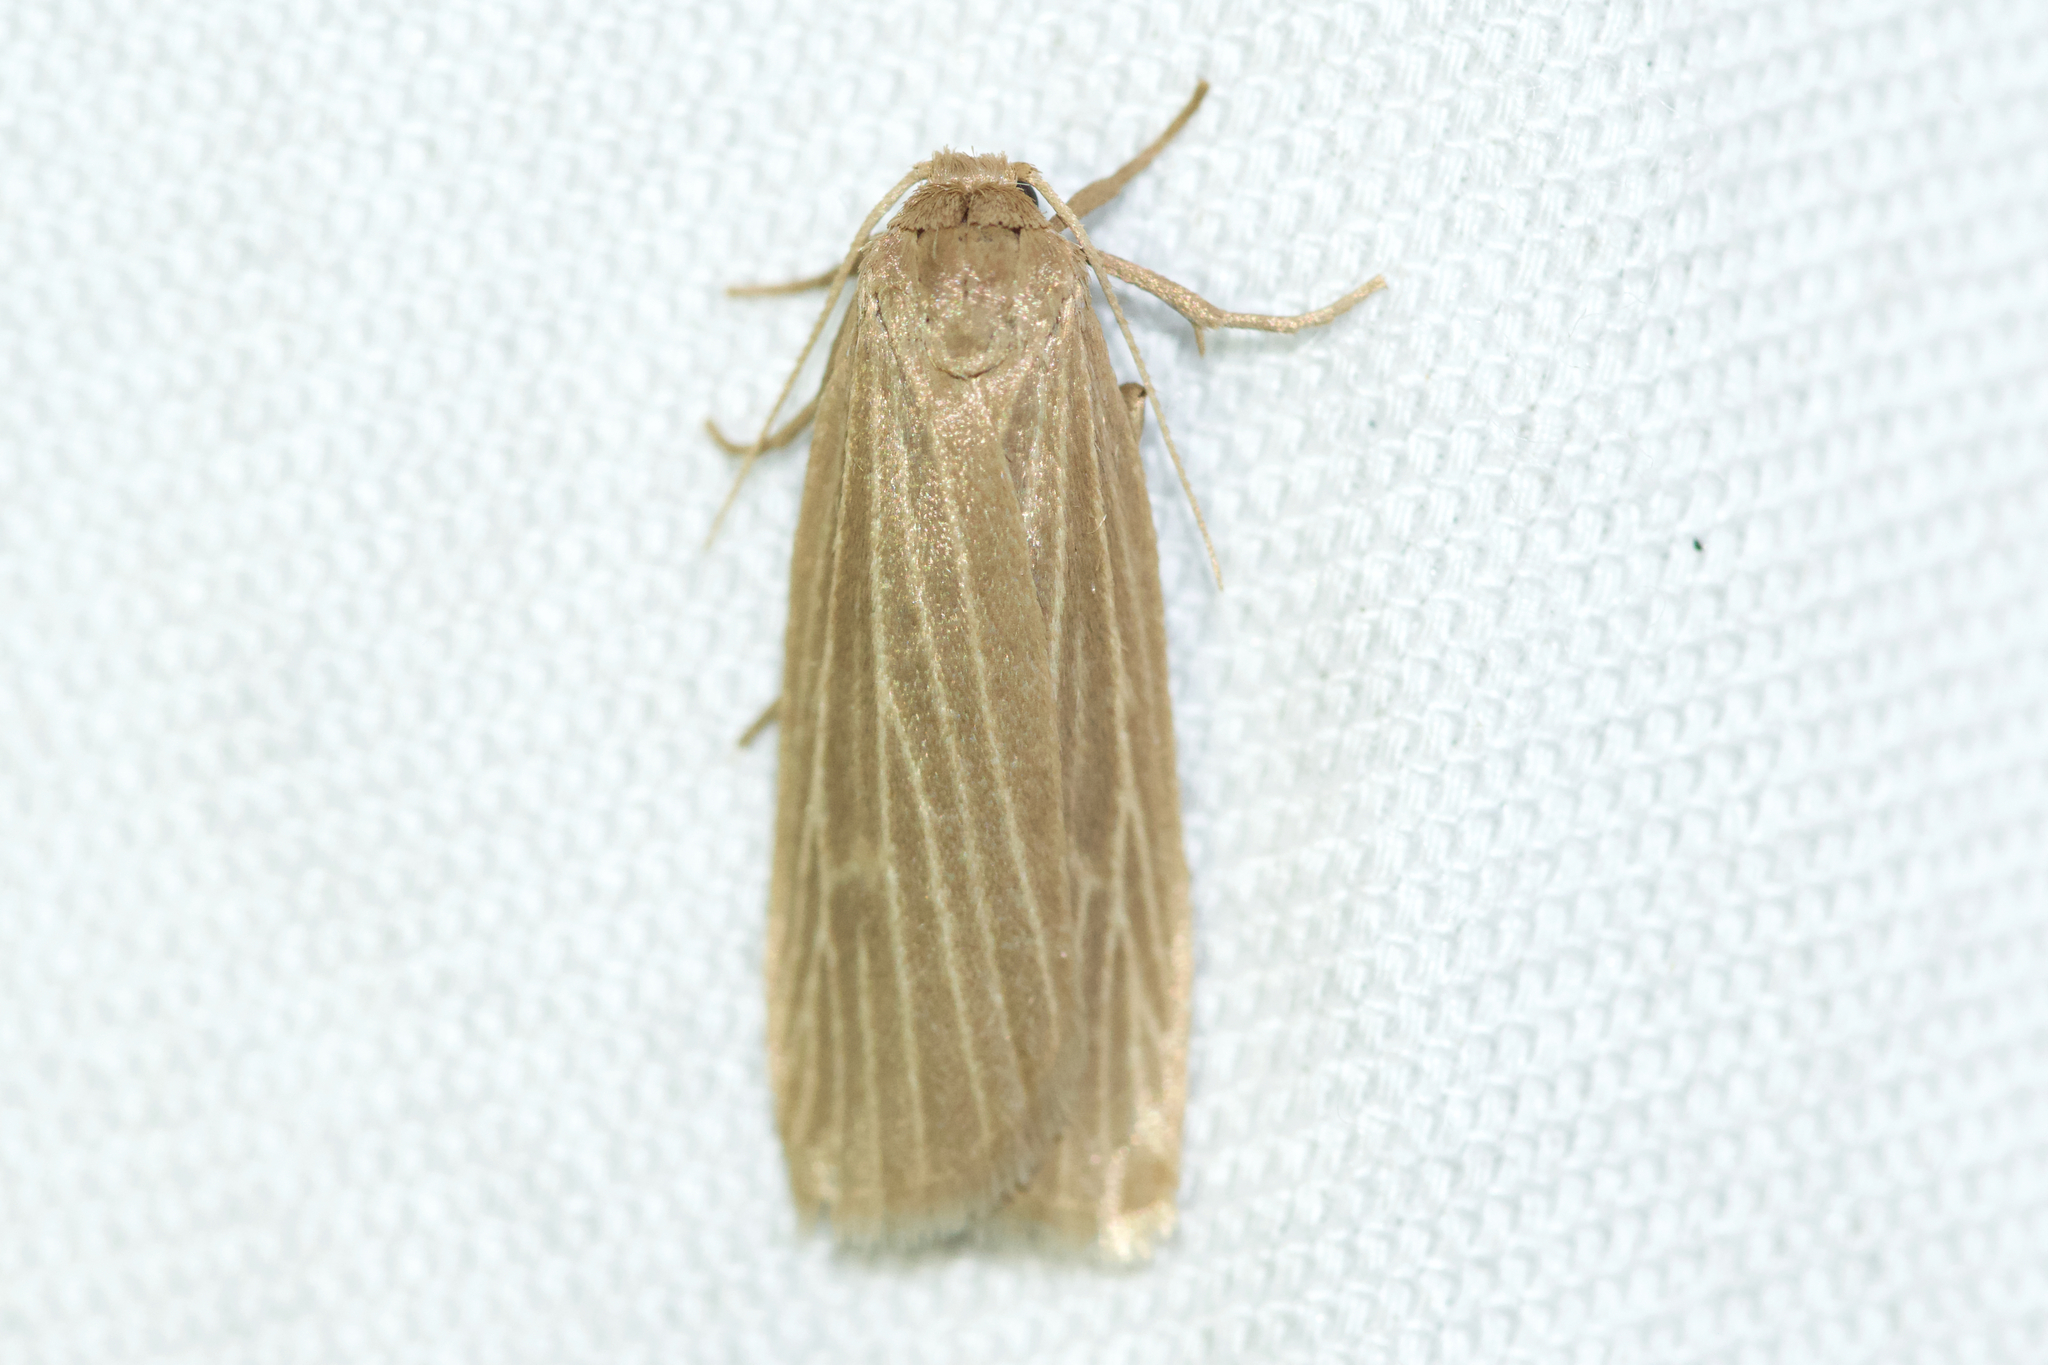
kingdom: Animalia
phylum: Arthropoda
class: Insecta
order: Lepidoptera
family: Erebidae
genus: Crambidia
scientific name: Crambidia pallida
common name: Pale lichen moth
